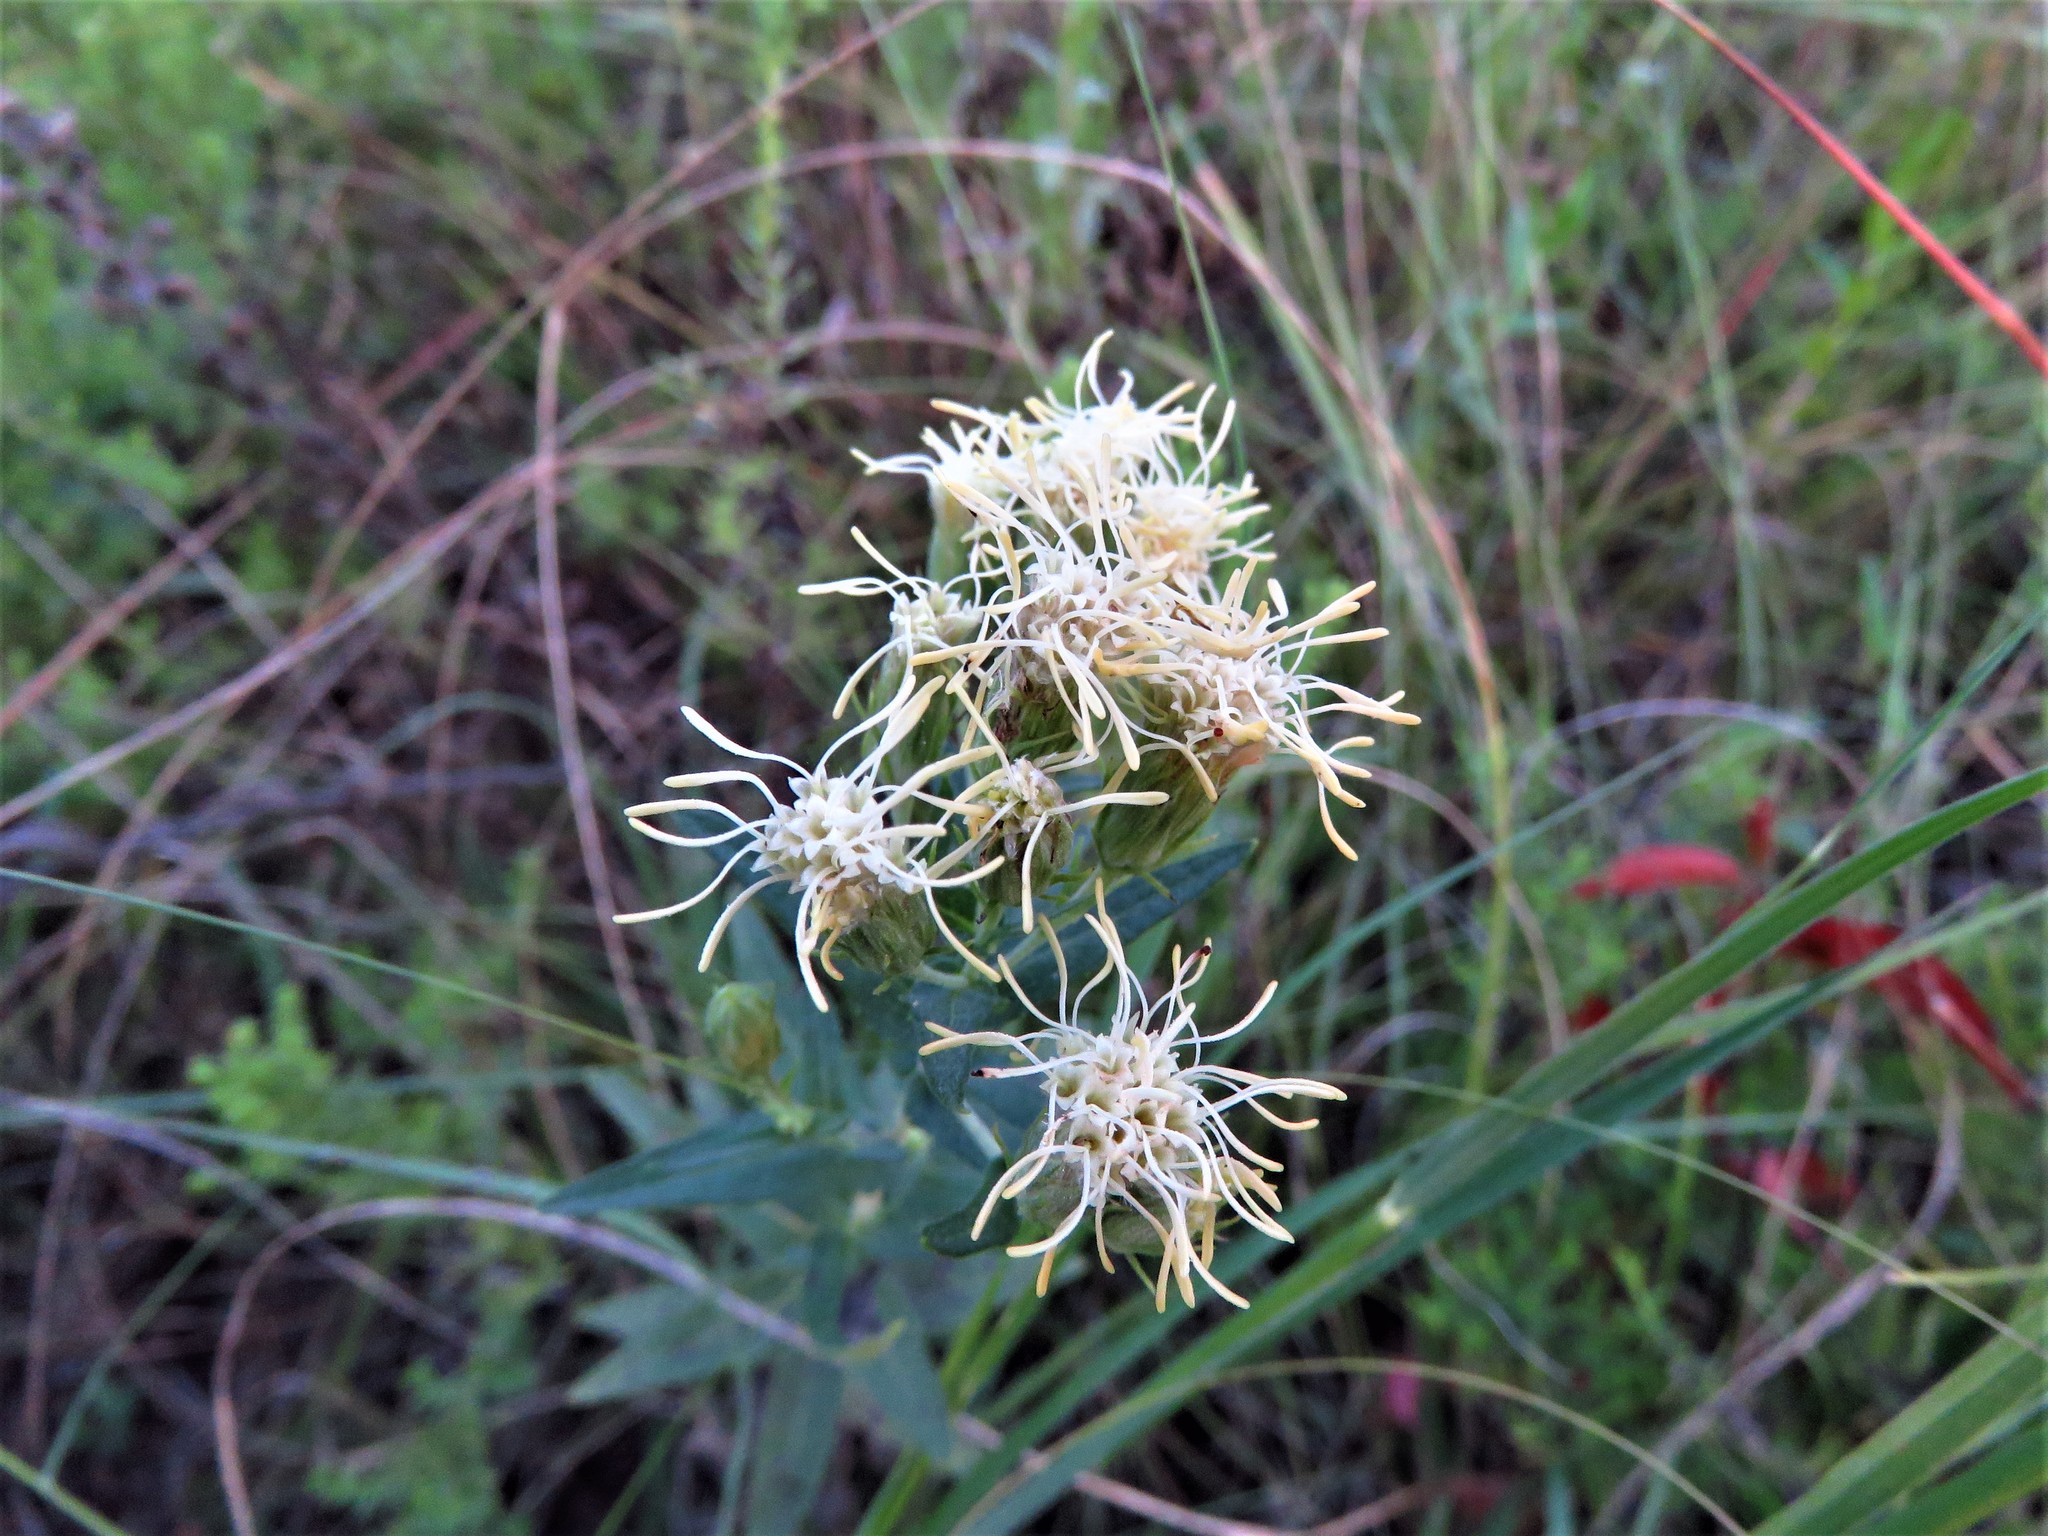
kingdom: Plantae
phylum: Tracheophyta
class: Magnoliopsida
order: Asterales
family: Asteraceae
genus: Brickellia
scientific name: Brickellia eupatorioides
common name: False boneset
